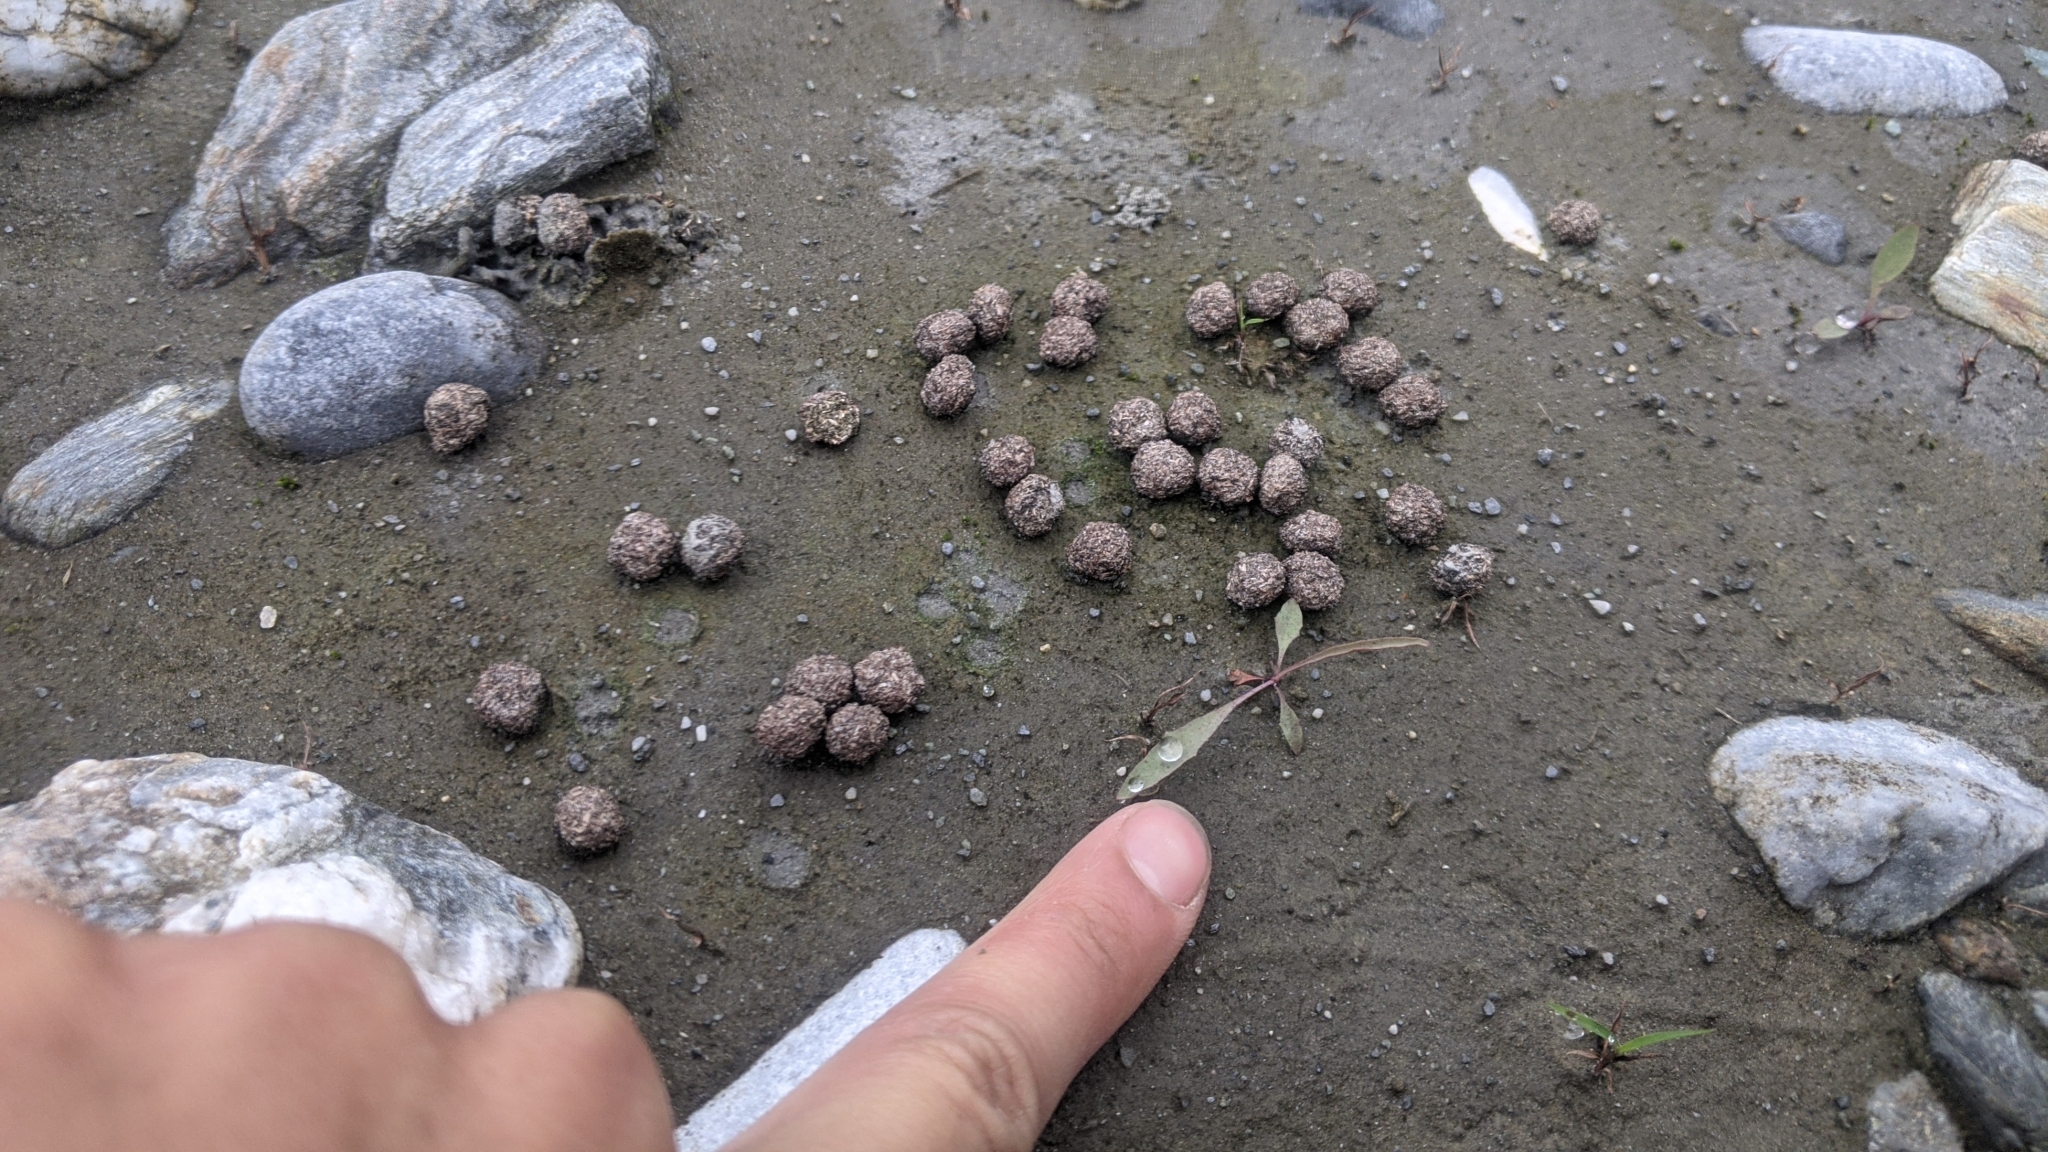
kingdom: Animalia
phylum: Chordata
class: Mammalia
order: Lagomorpha
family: Leporidae
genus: Lepus
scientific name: Lepus sinensis
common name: Chinese hare
